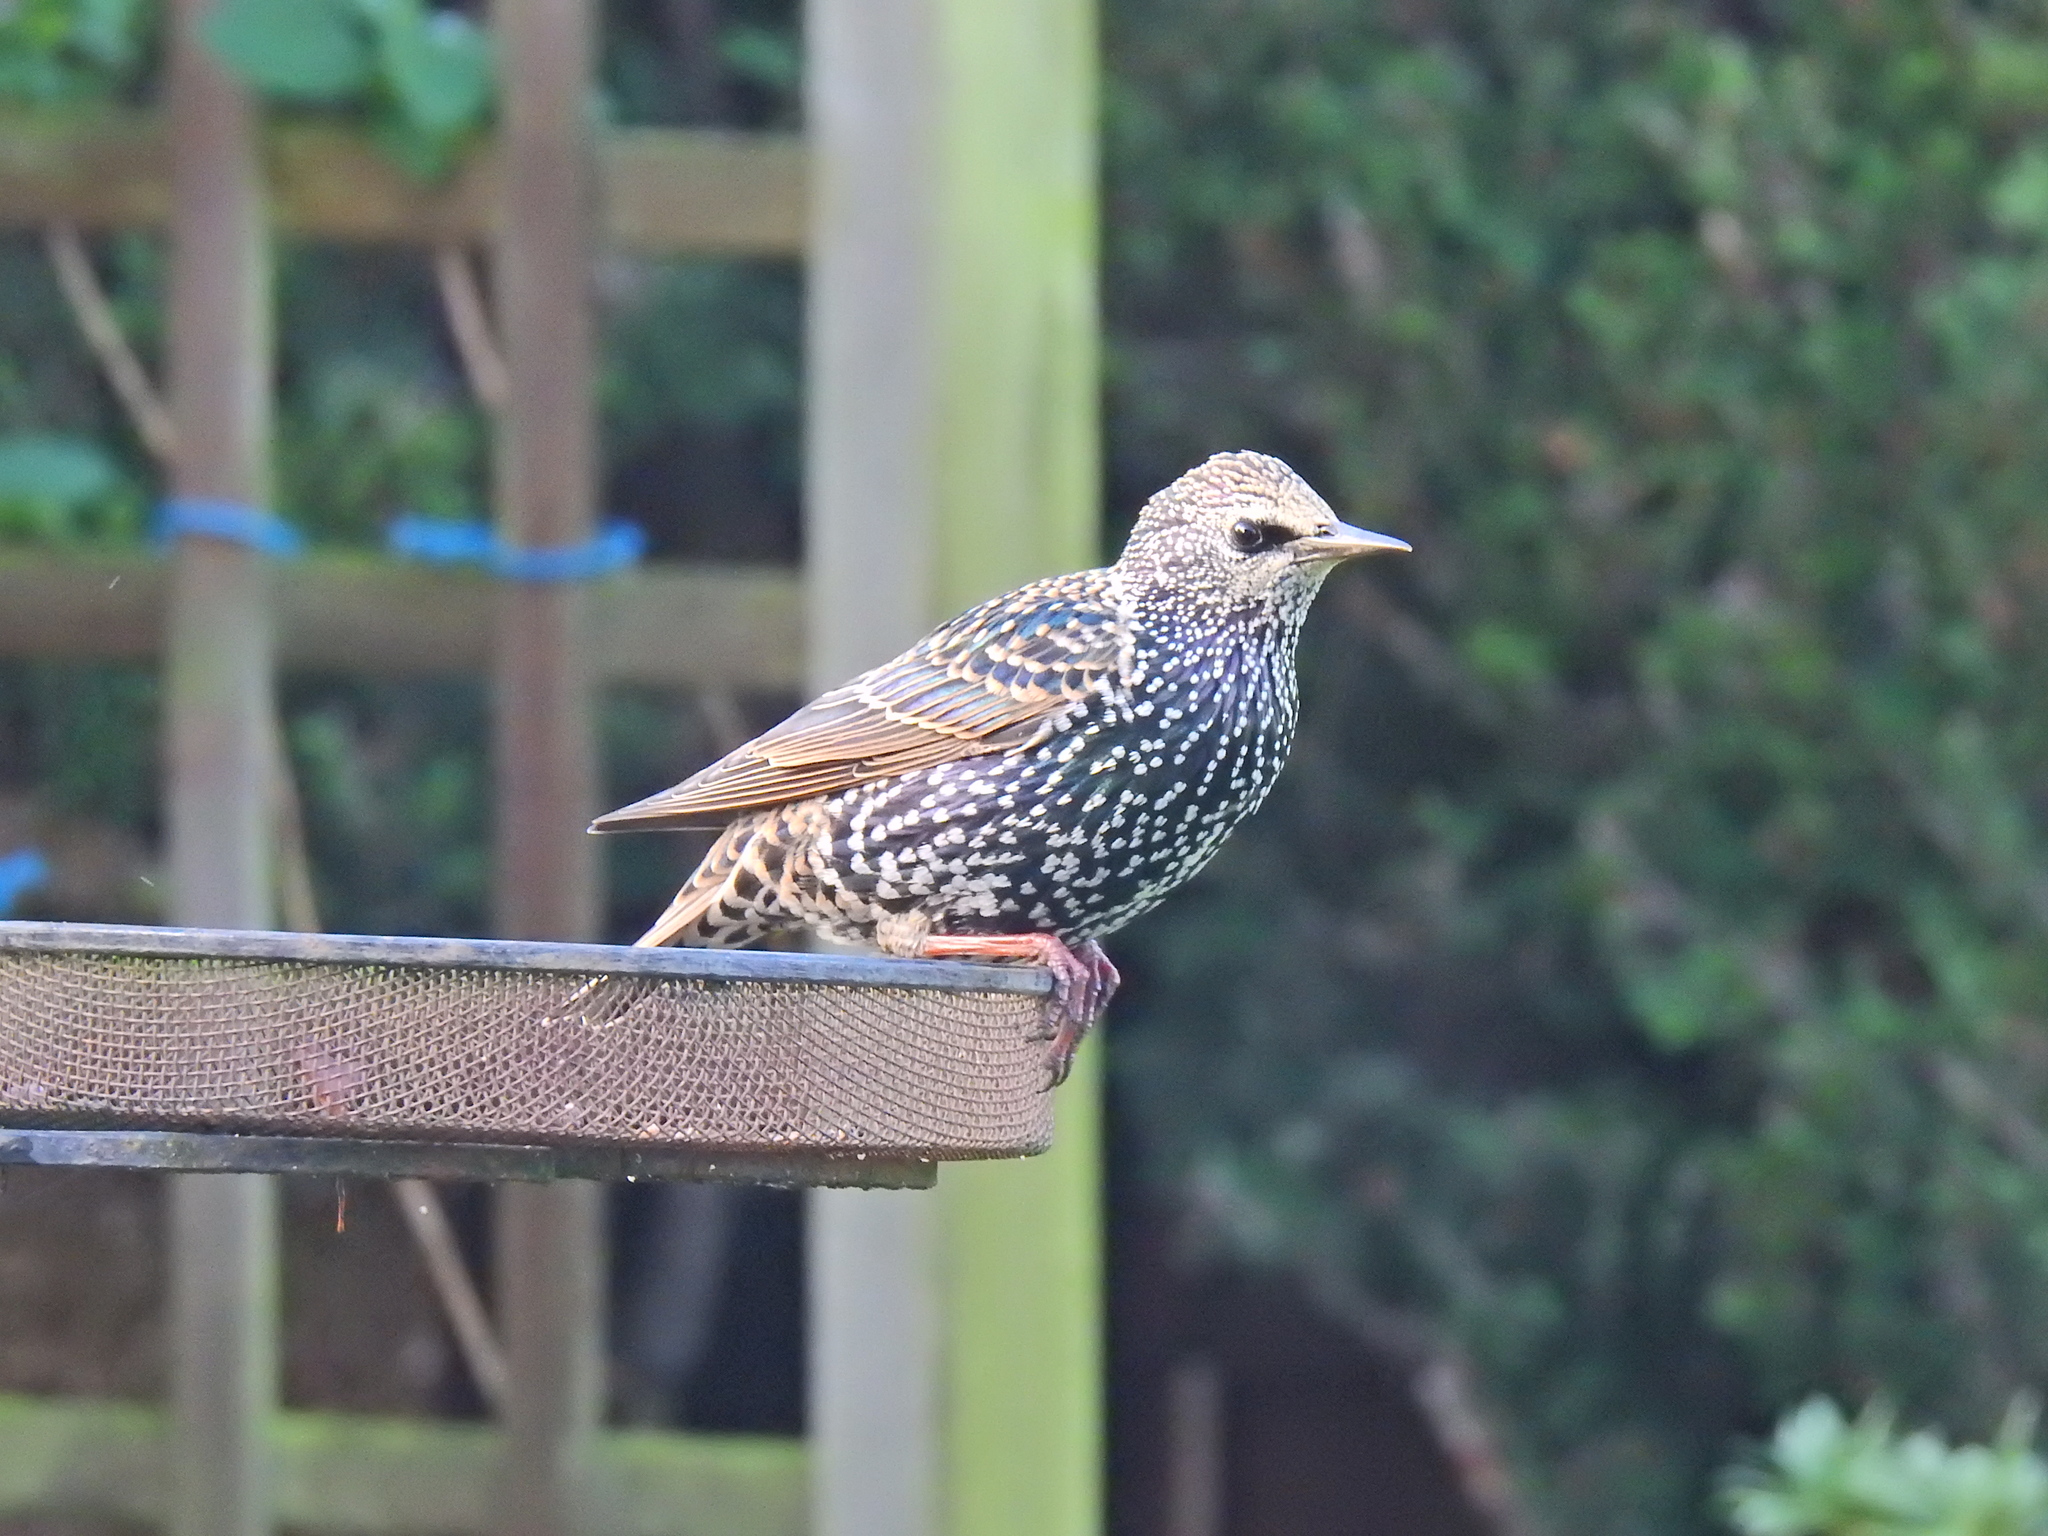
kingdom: Animalia
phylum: Chordata
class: Aves
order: Passeriformes
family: Sturnidae
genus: Sturnus
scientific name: Sturnus vulgaris
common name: Common starling
